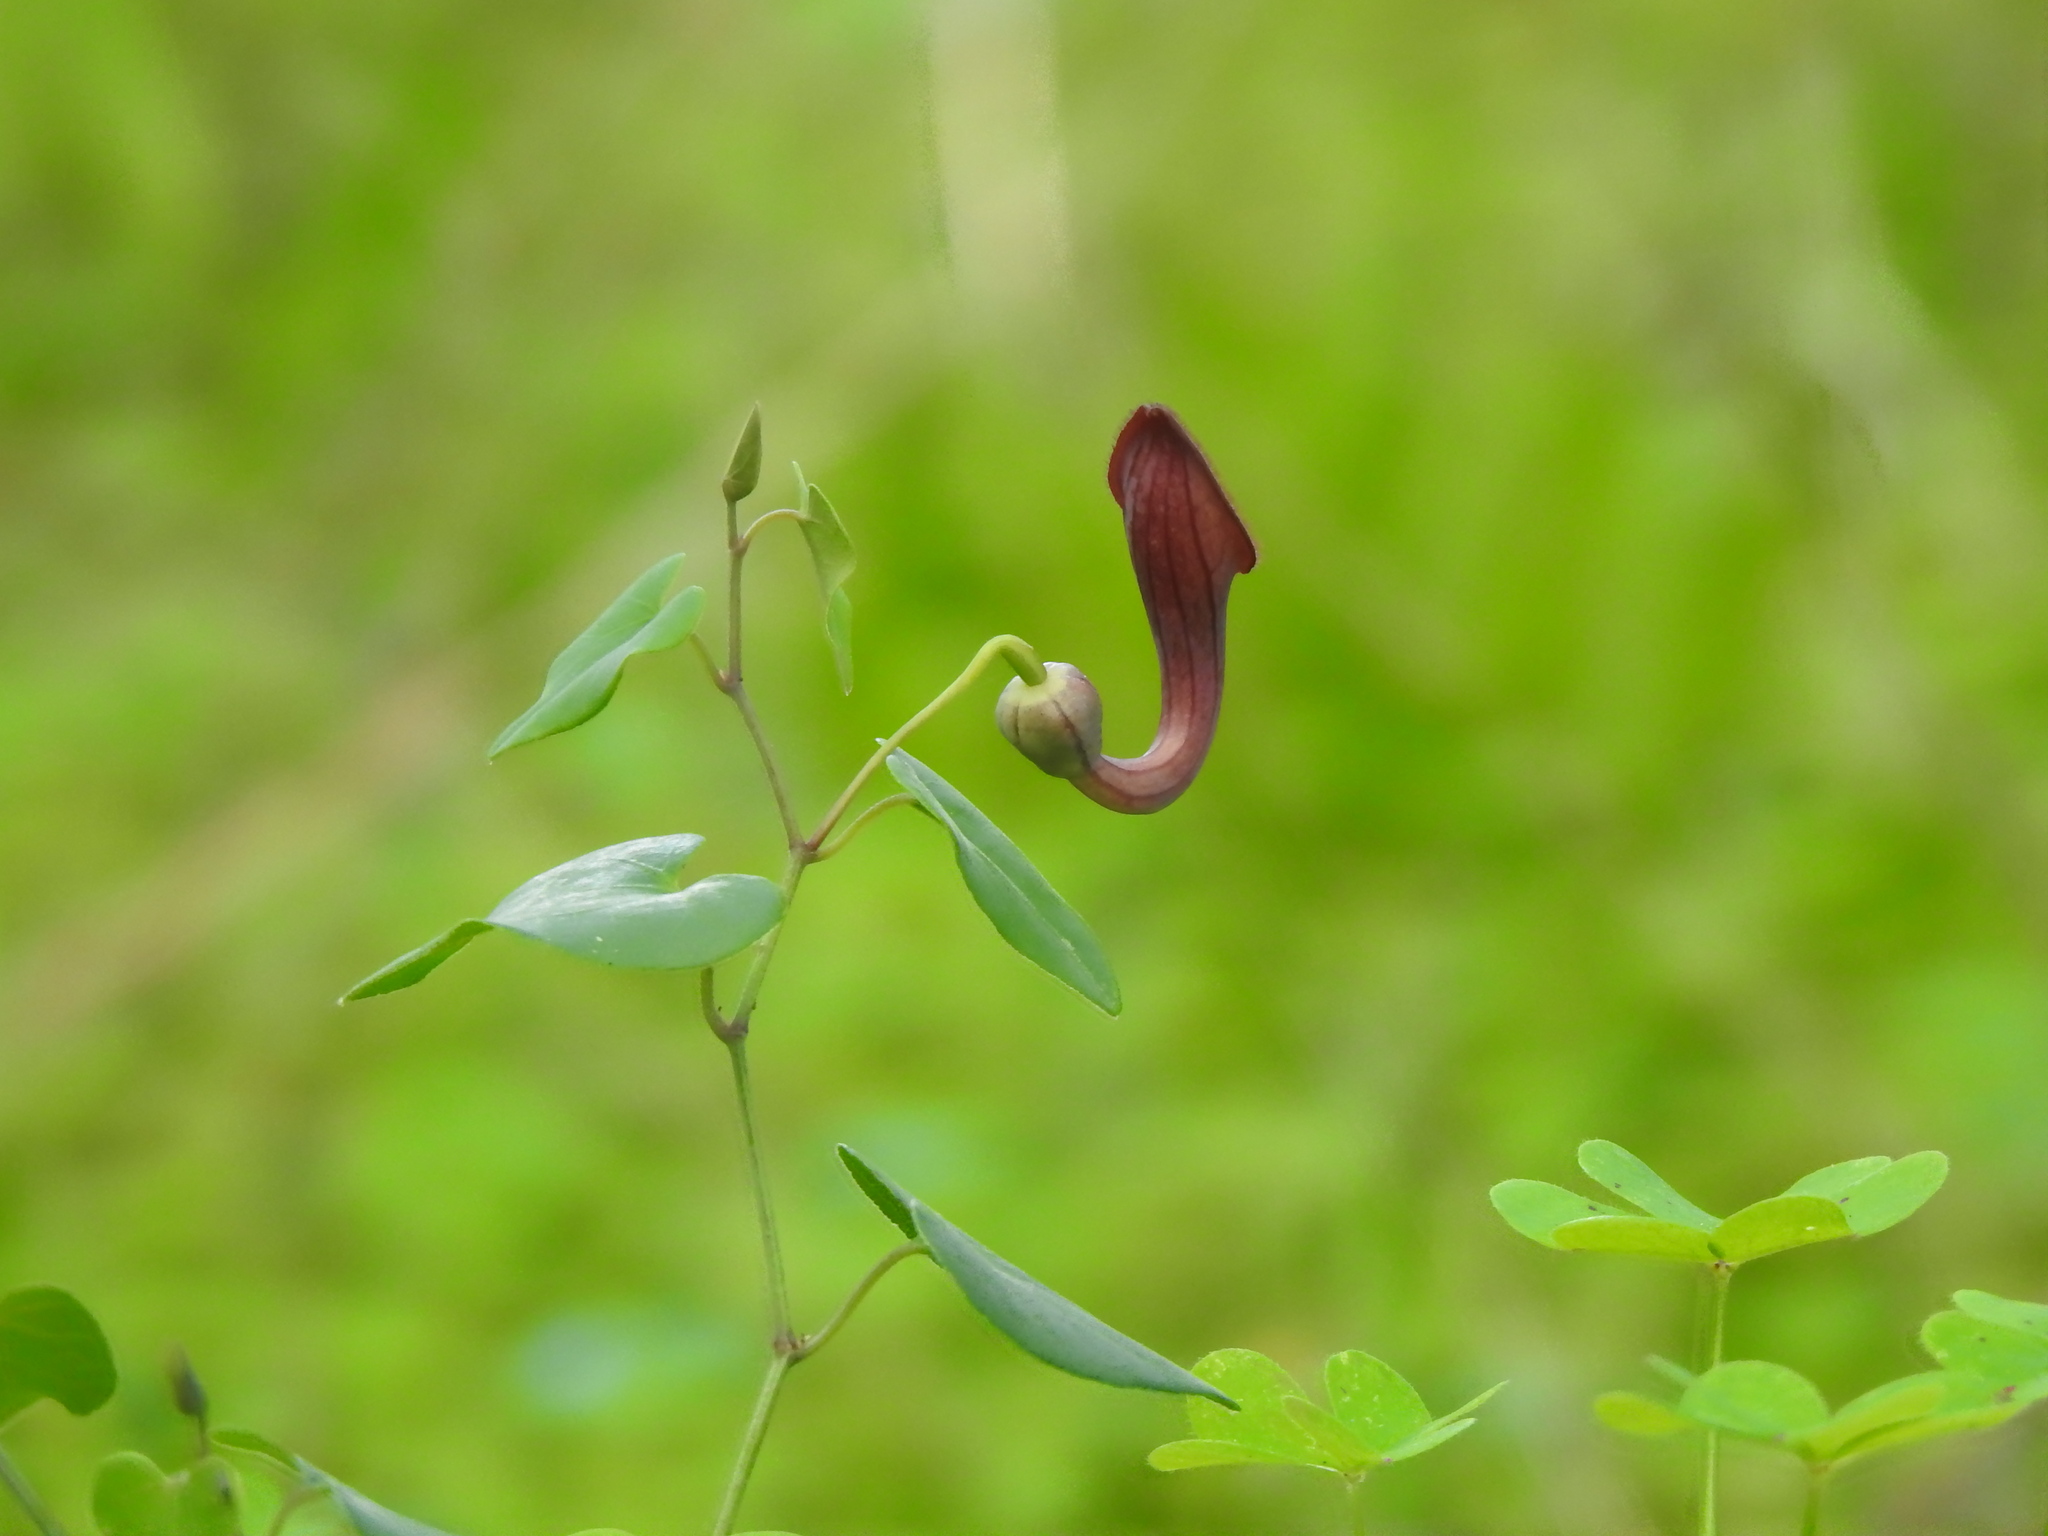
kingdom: Plantae
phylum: Tracheophyta
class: Magnoliopsida
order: Piperales
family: Aristolochiaceae
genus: Aristolochia
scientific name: Aristolochia baetica
